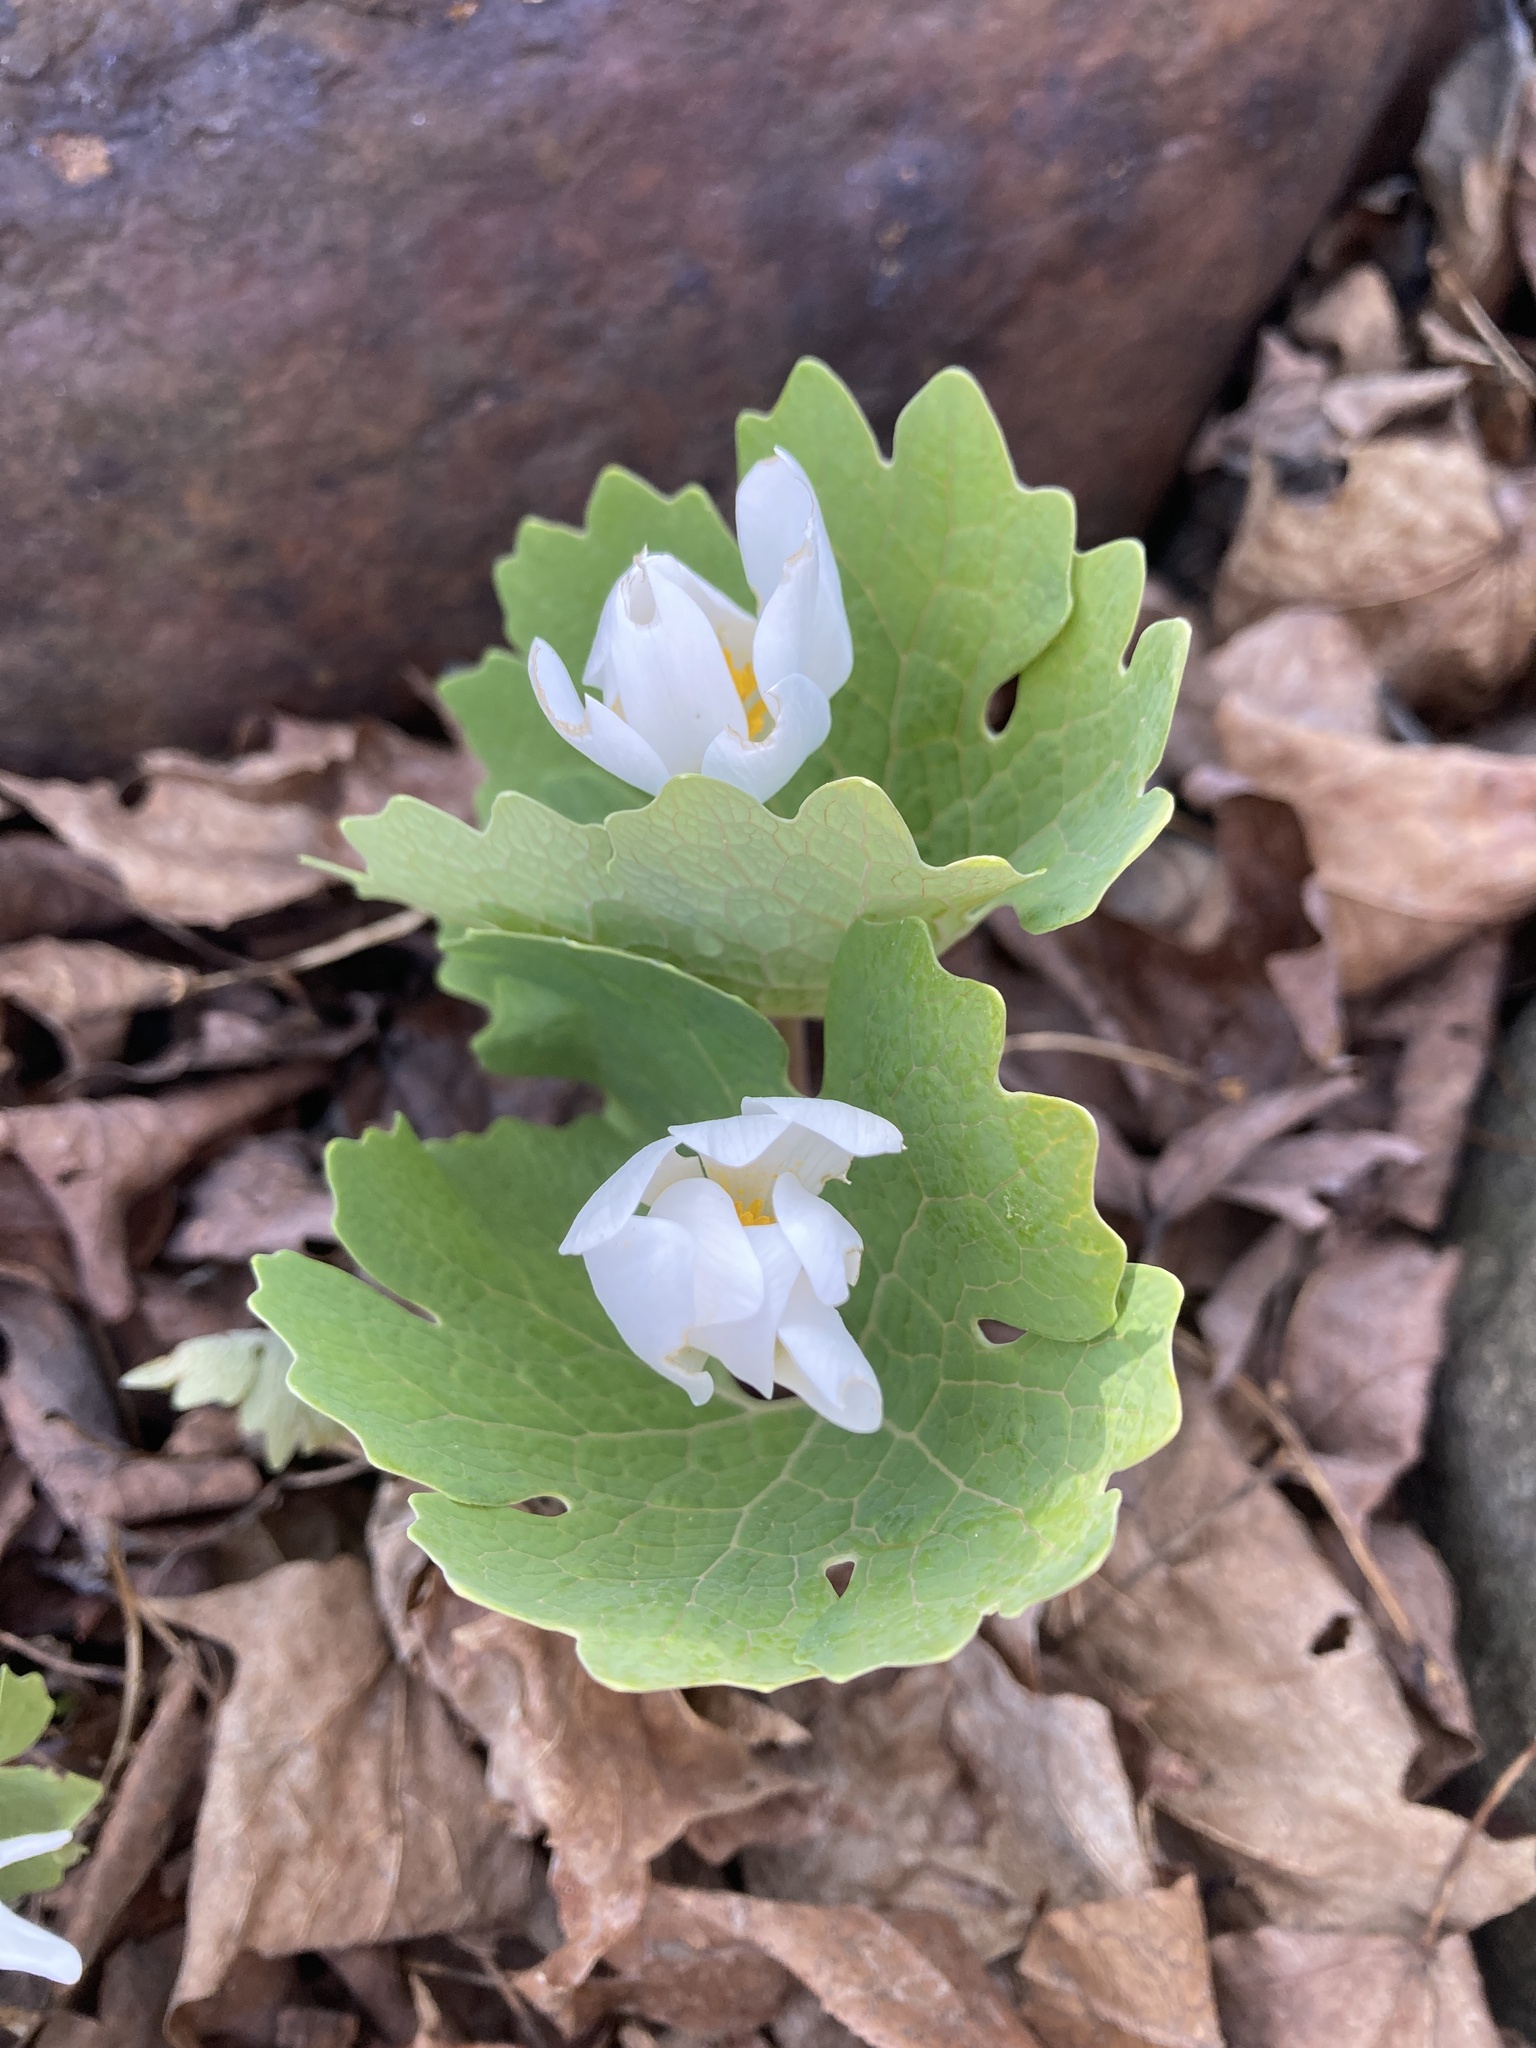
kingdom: Plantae
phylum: Tracheophyta
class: Magnoliopsida
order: Ranunculales
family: Papaveraceae
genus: Sanguinaria
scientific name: Sanguinaria canadensis
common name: Bloodroot
